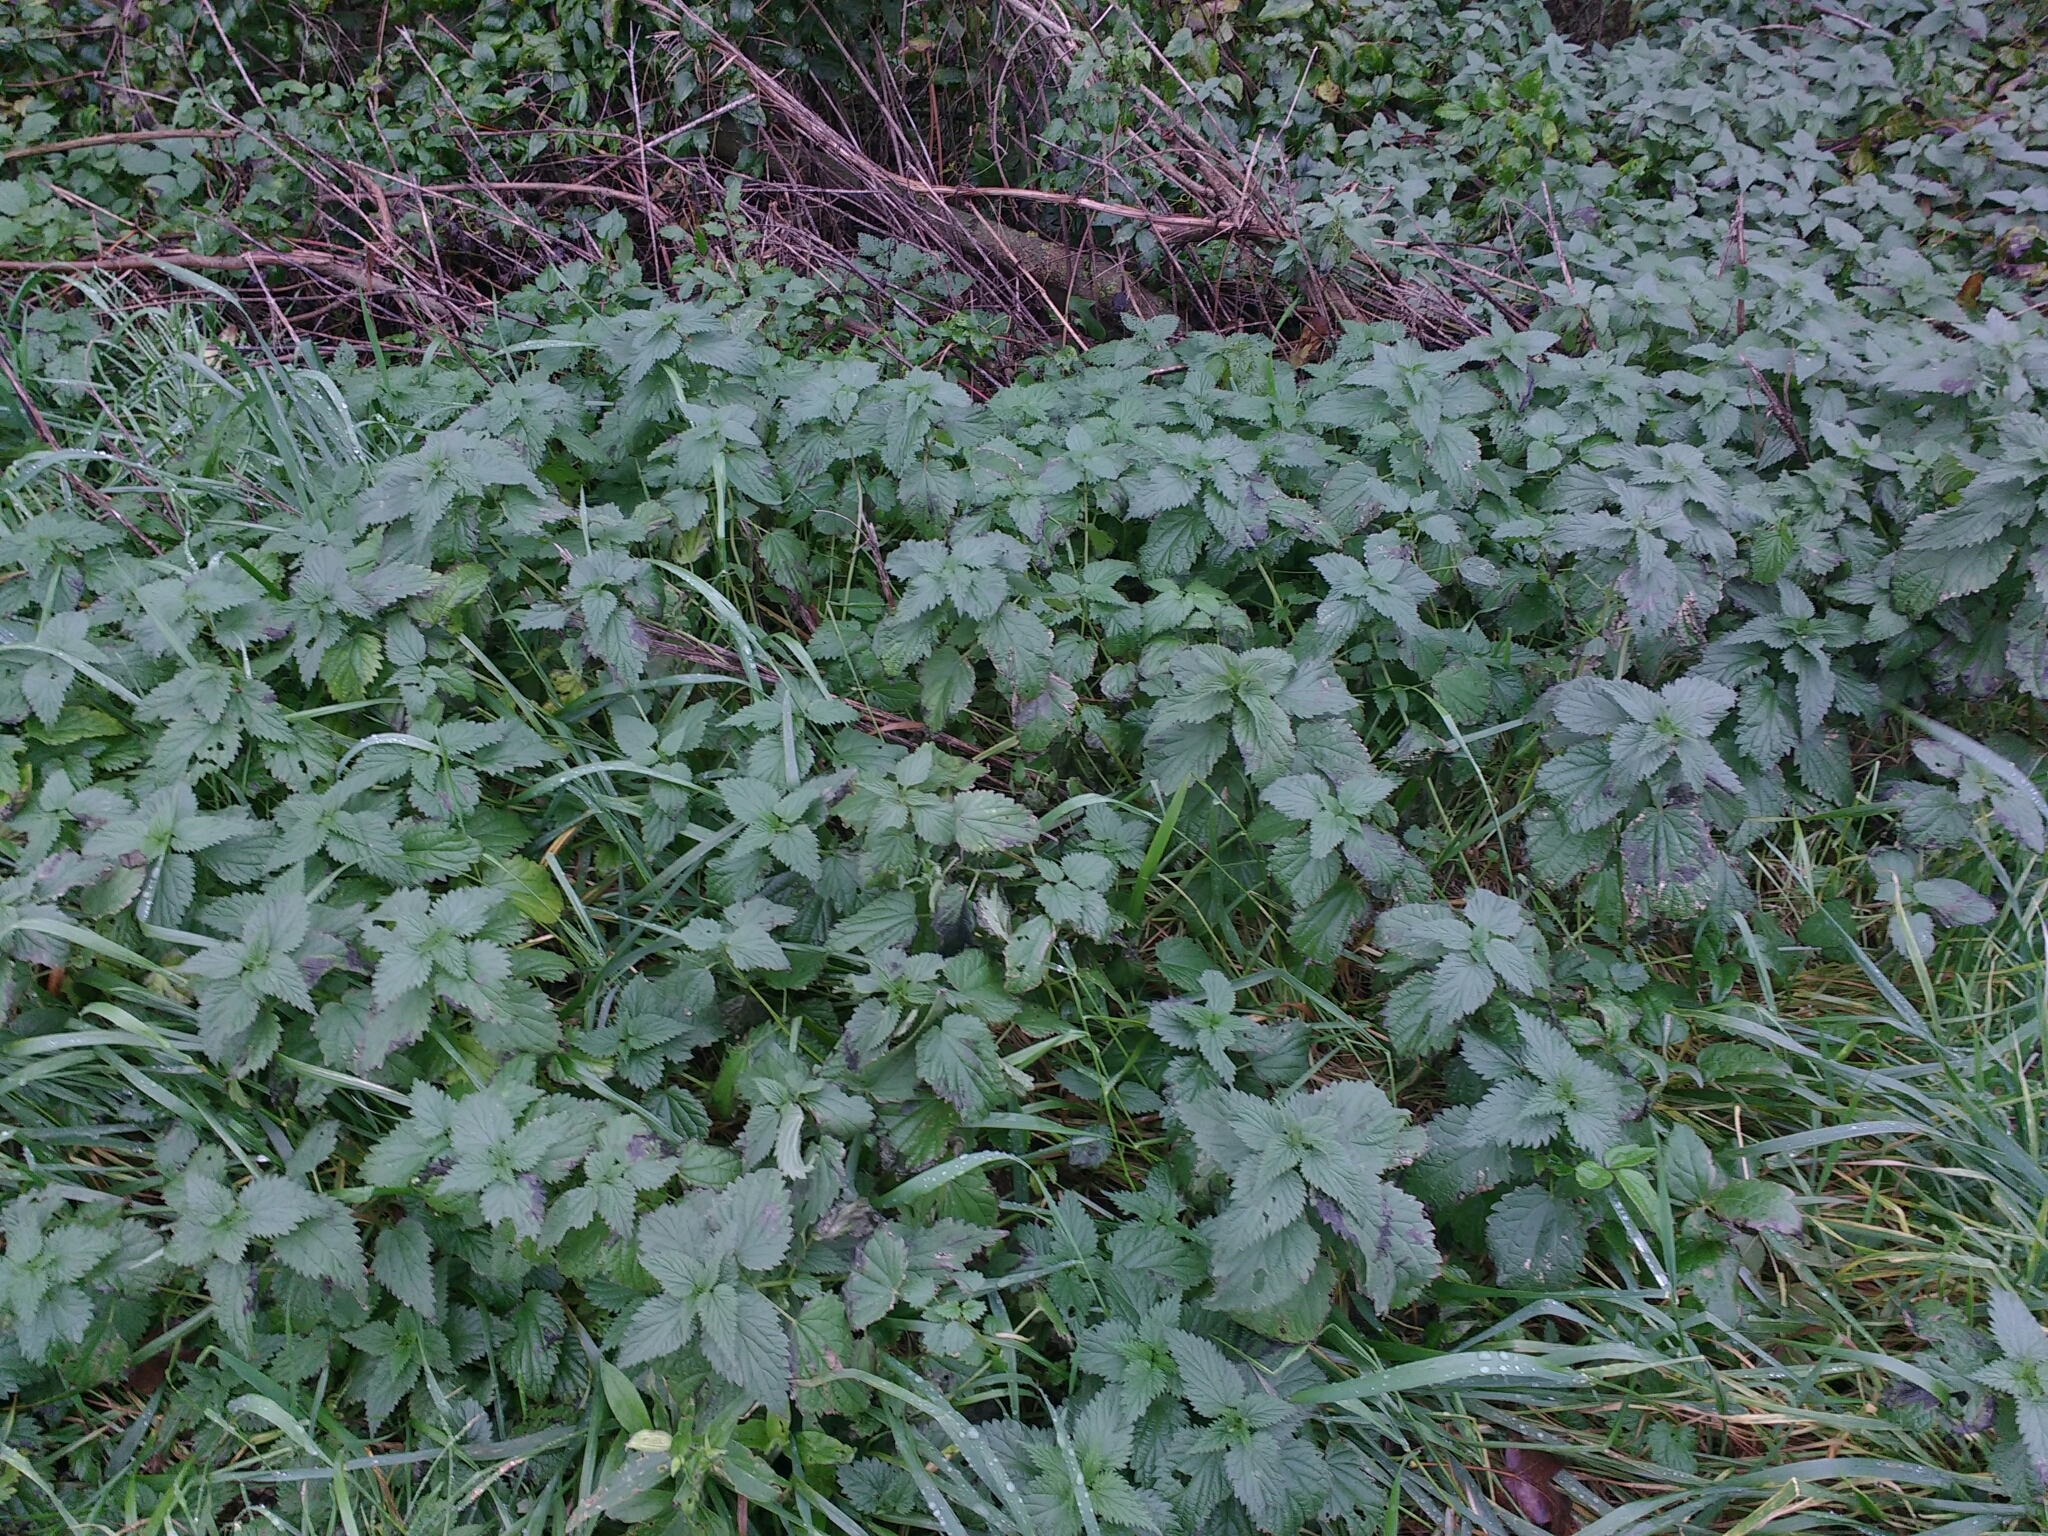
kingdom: Plantae
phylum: Tracheophyta
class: Magnoliopsida
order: Rosales
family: Urticaceae
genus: Urtica
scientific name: Urtica dioica
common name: Common nettle
